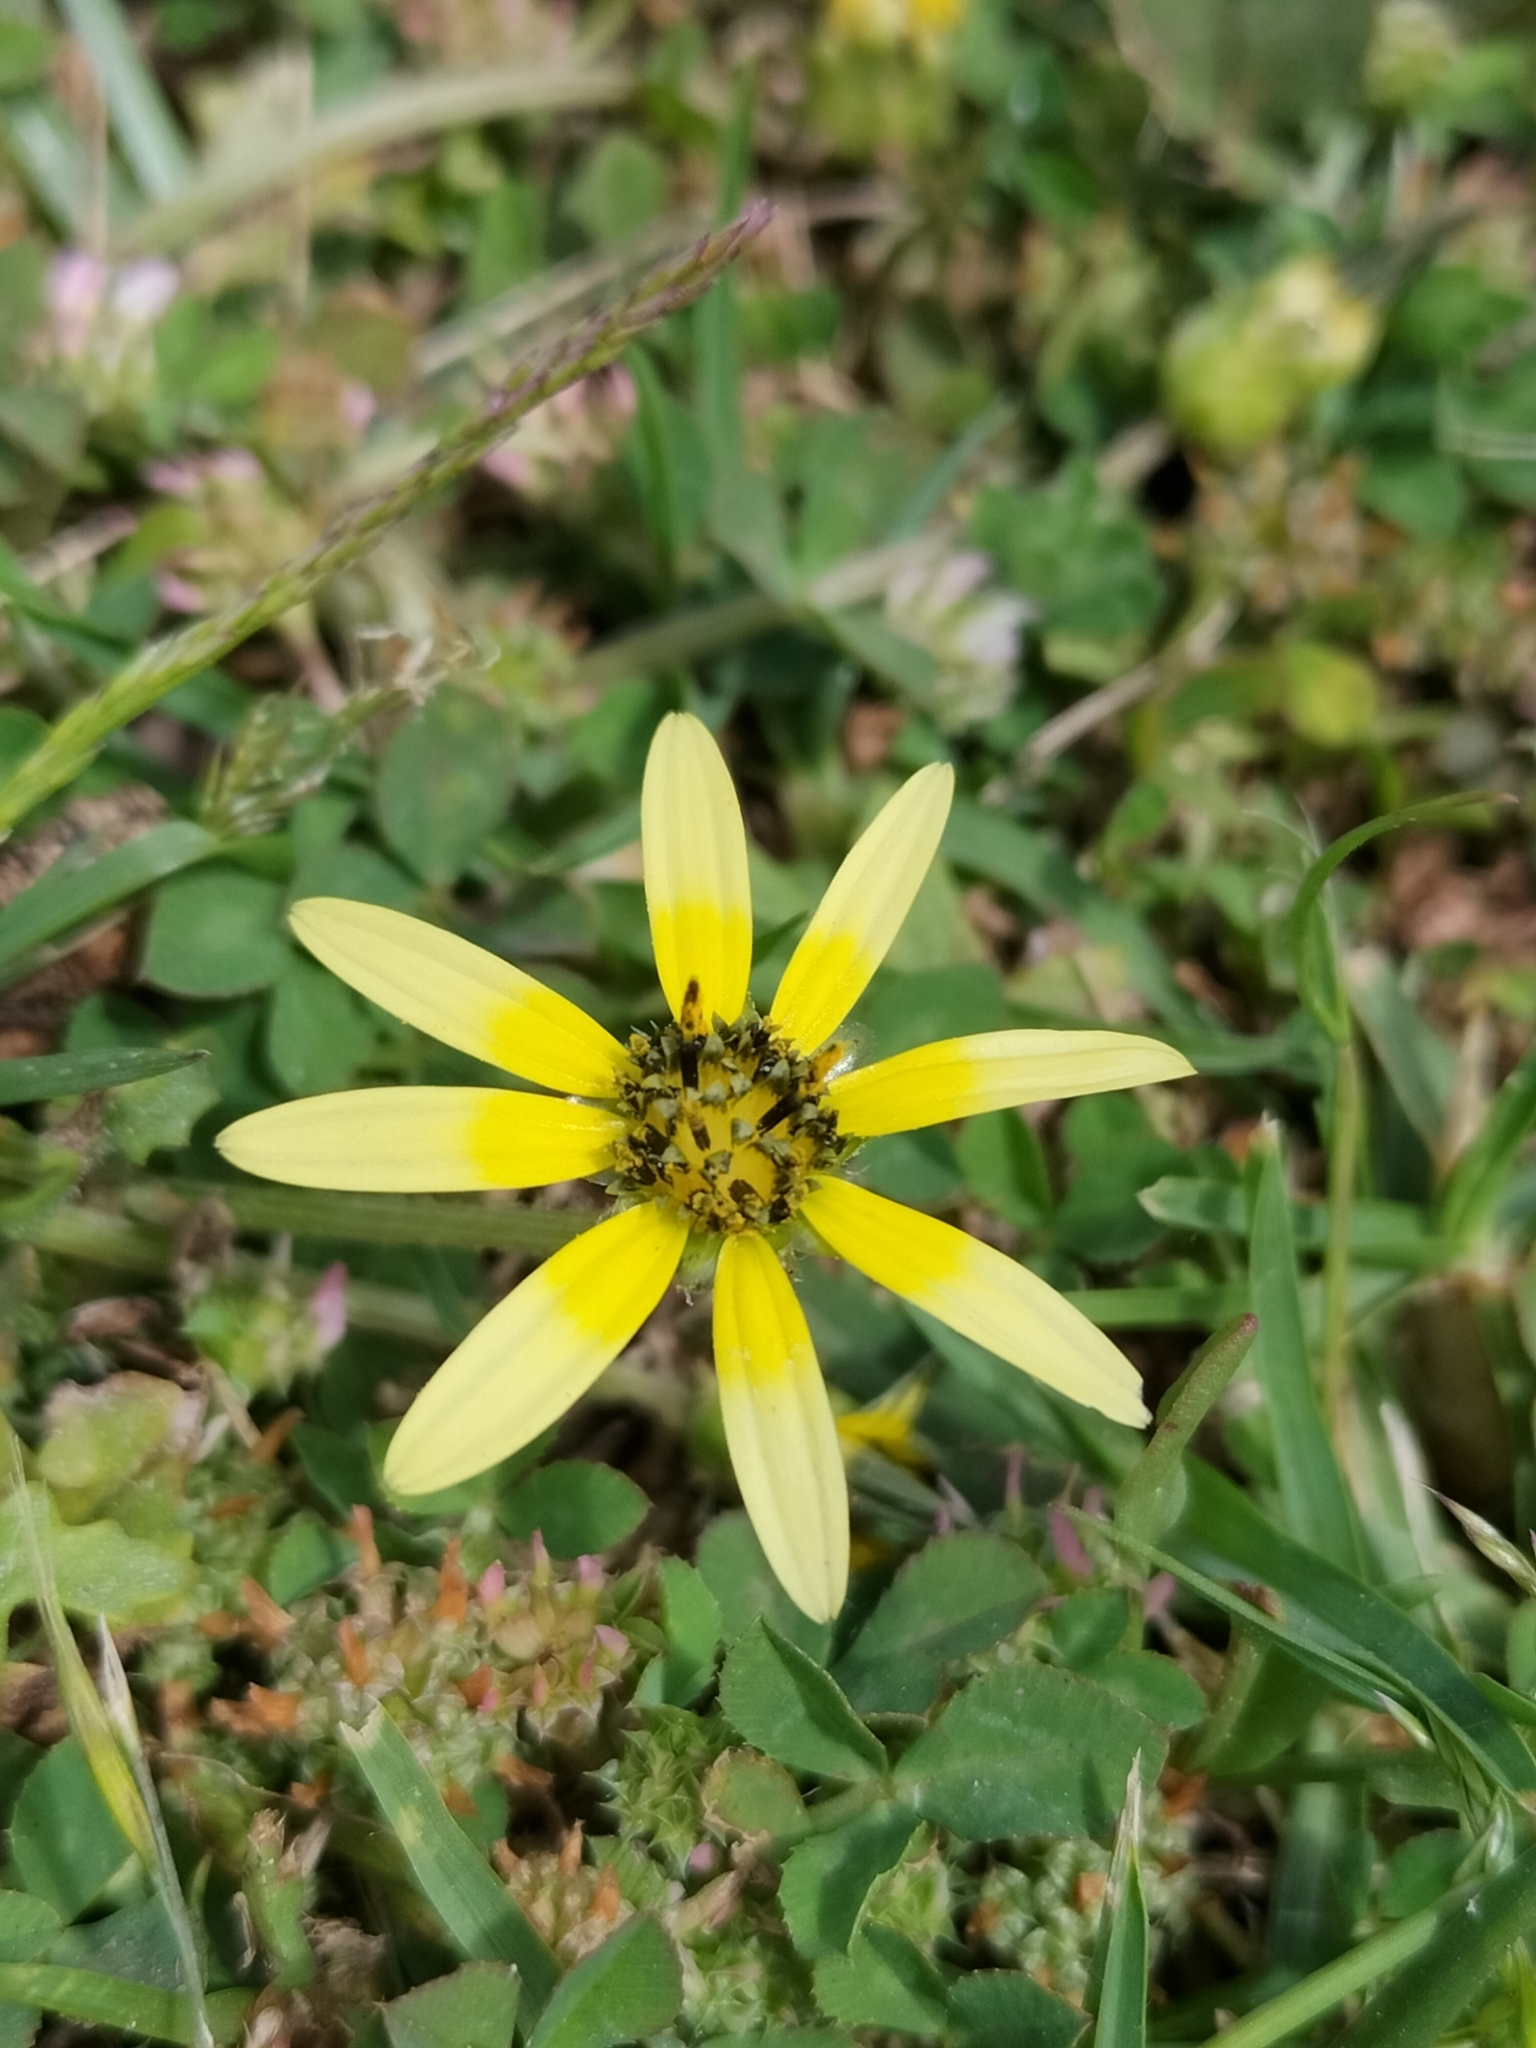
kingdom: Plantae
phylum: Tracheophyta
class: Magnoliopsida
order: Asterales
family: Asteraceae
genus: Arctotheca
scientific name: Arctotheca calendula
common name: Capeweed
